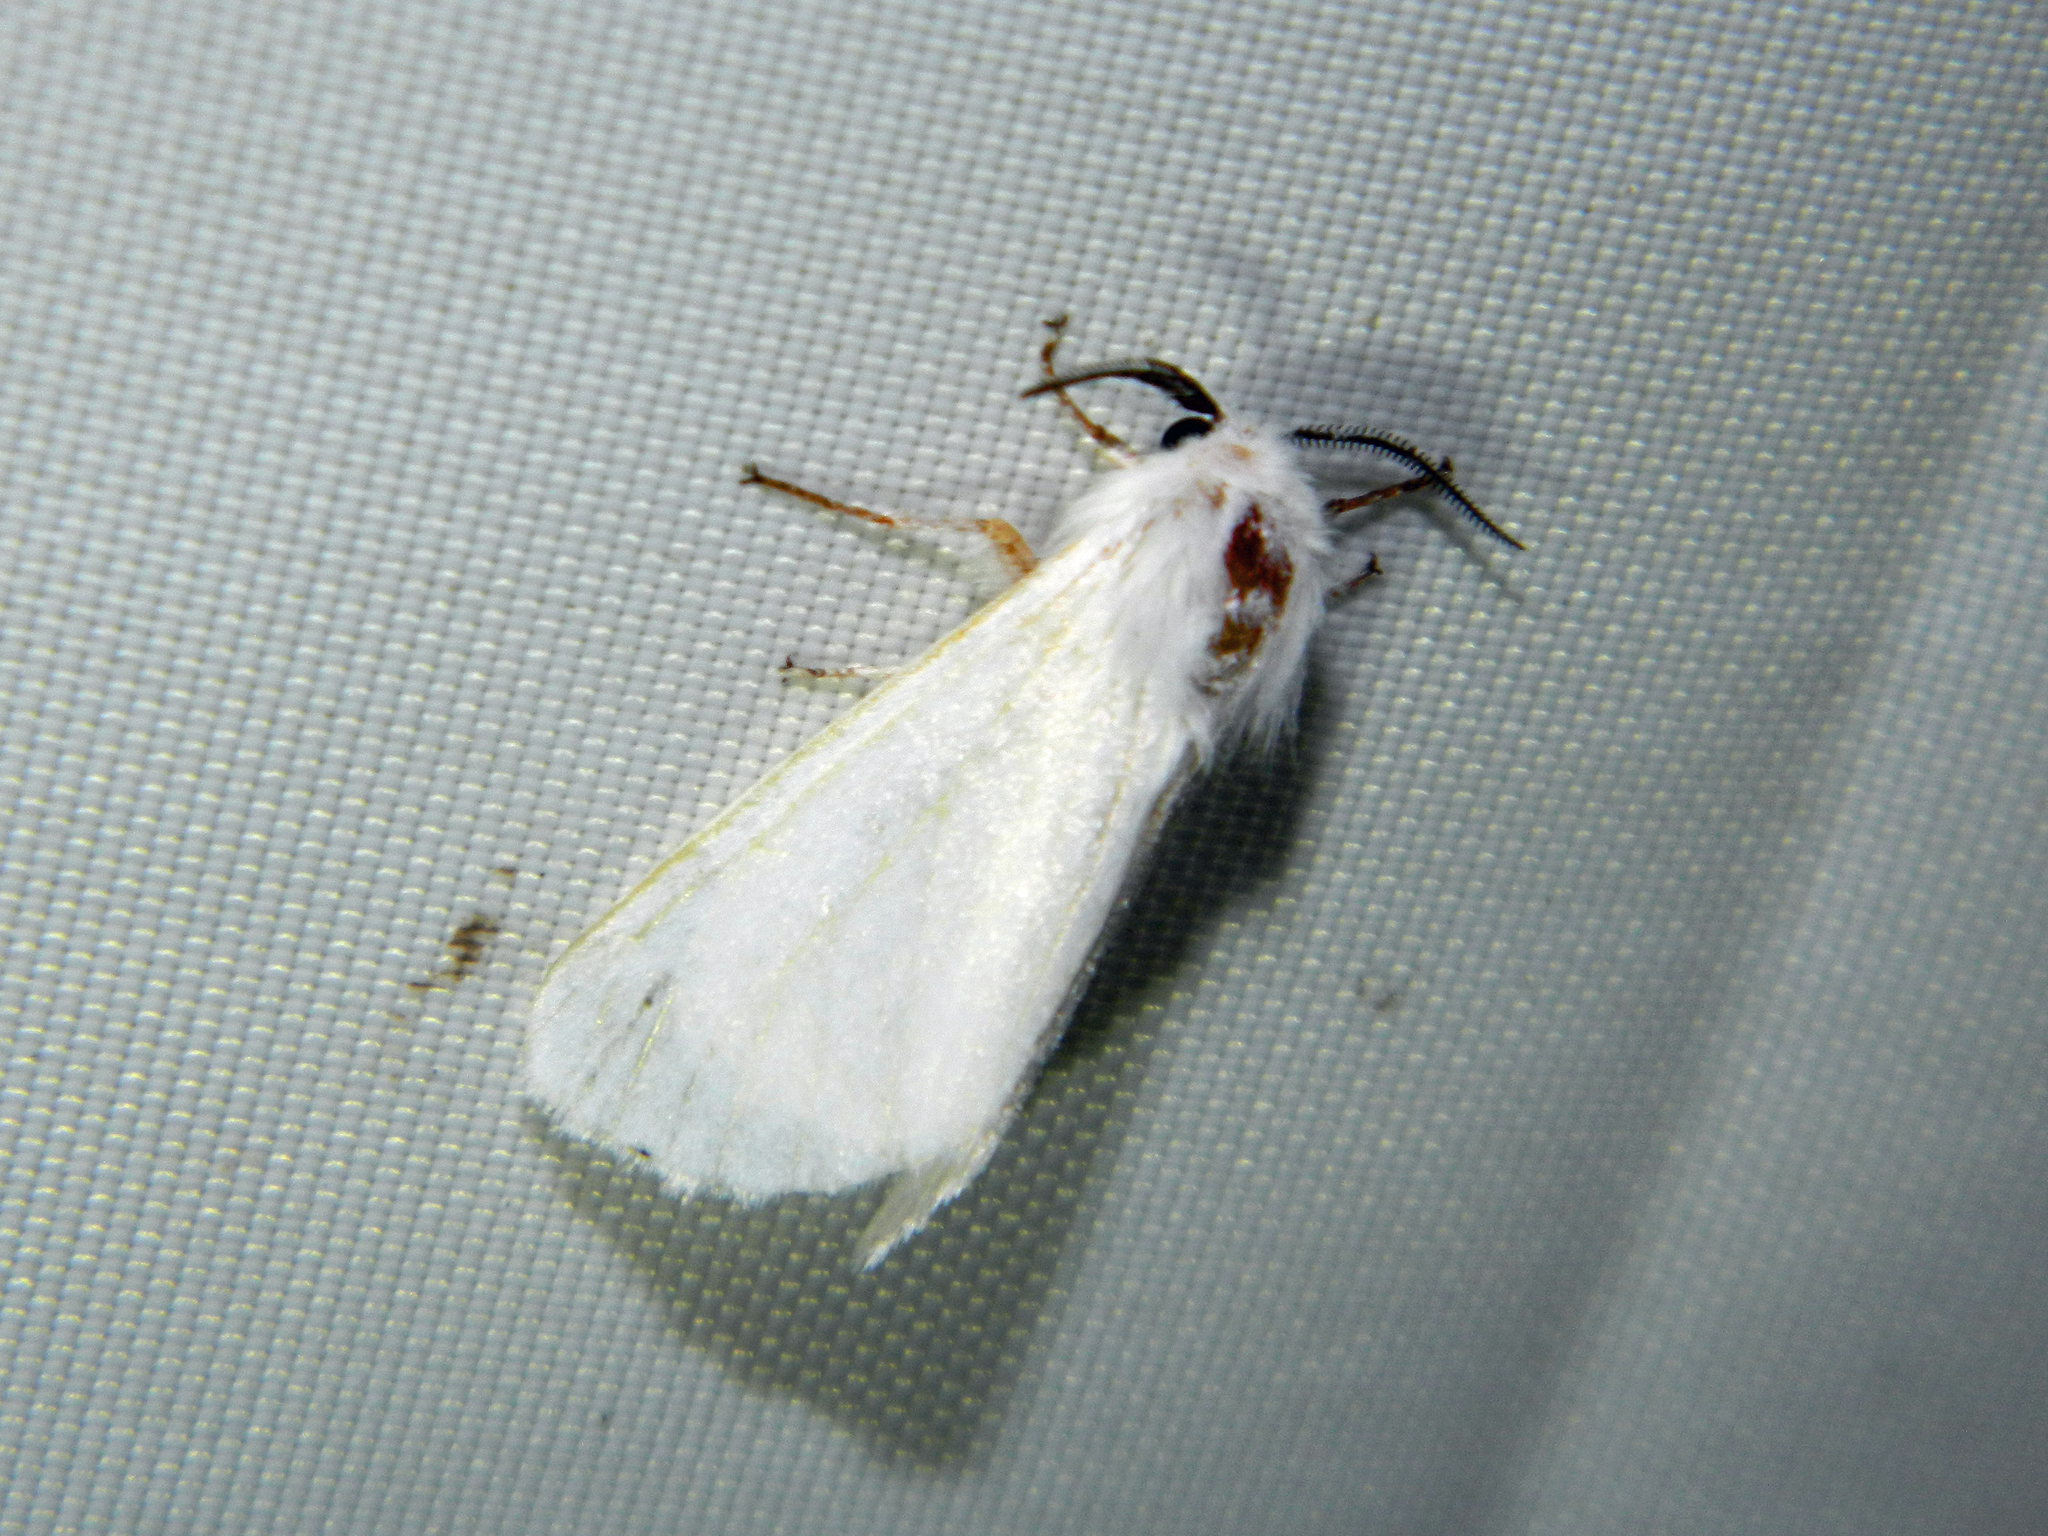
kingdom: Animalia
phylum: Arthropoda
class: Insecta
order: Lepidoptera
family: Erebidae
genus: Hyphantria
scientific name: Hyphantria cunea
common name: American white moth
